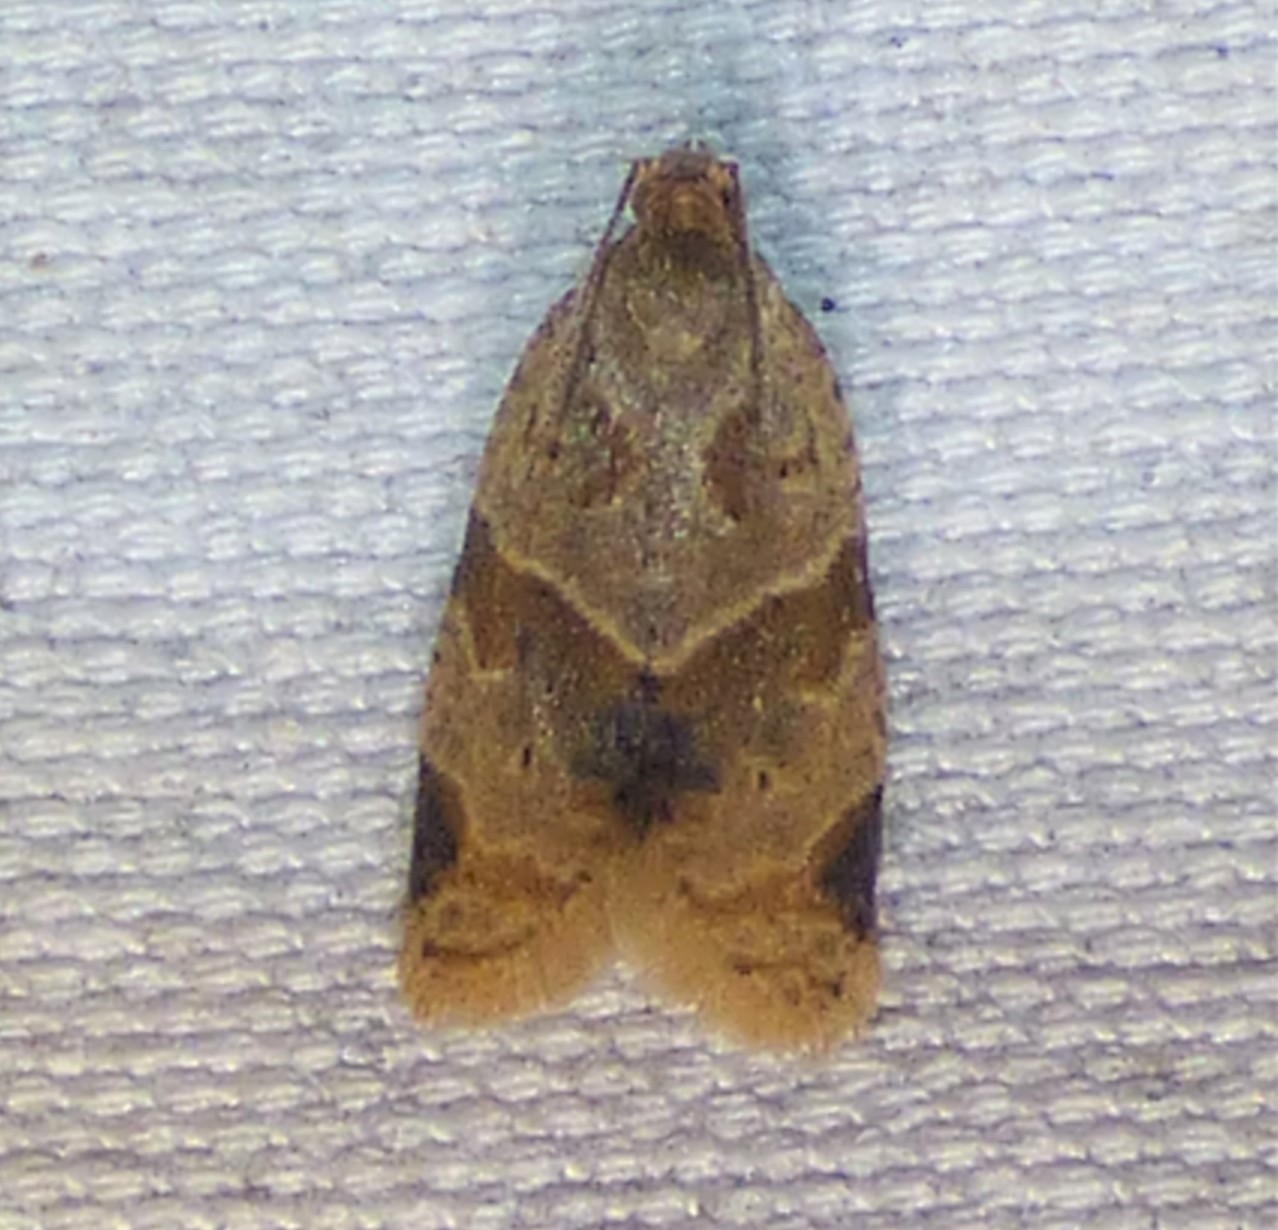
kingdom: Animalia
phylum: Arthropoda
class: Insecta
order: Lepidoptera
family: Tortricidae
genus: Clepsis
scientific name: Clepsis peritana
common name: Garden tortrix
